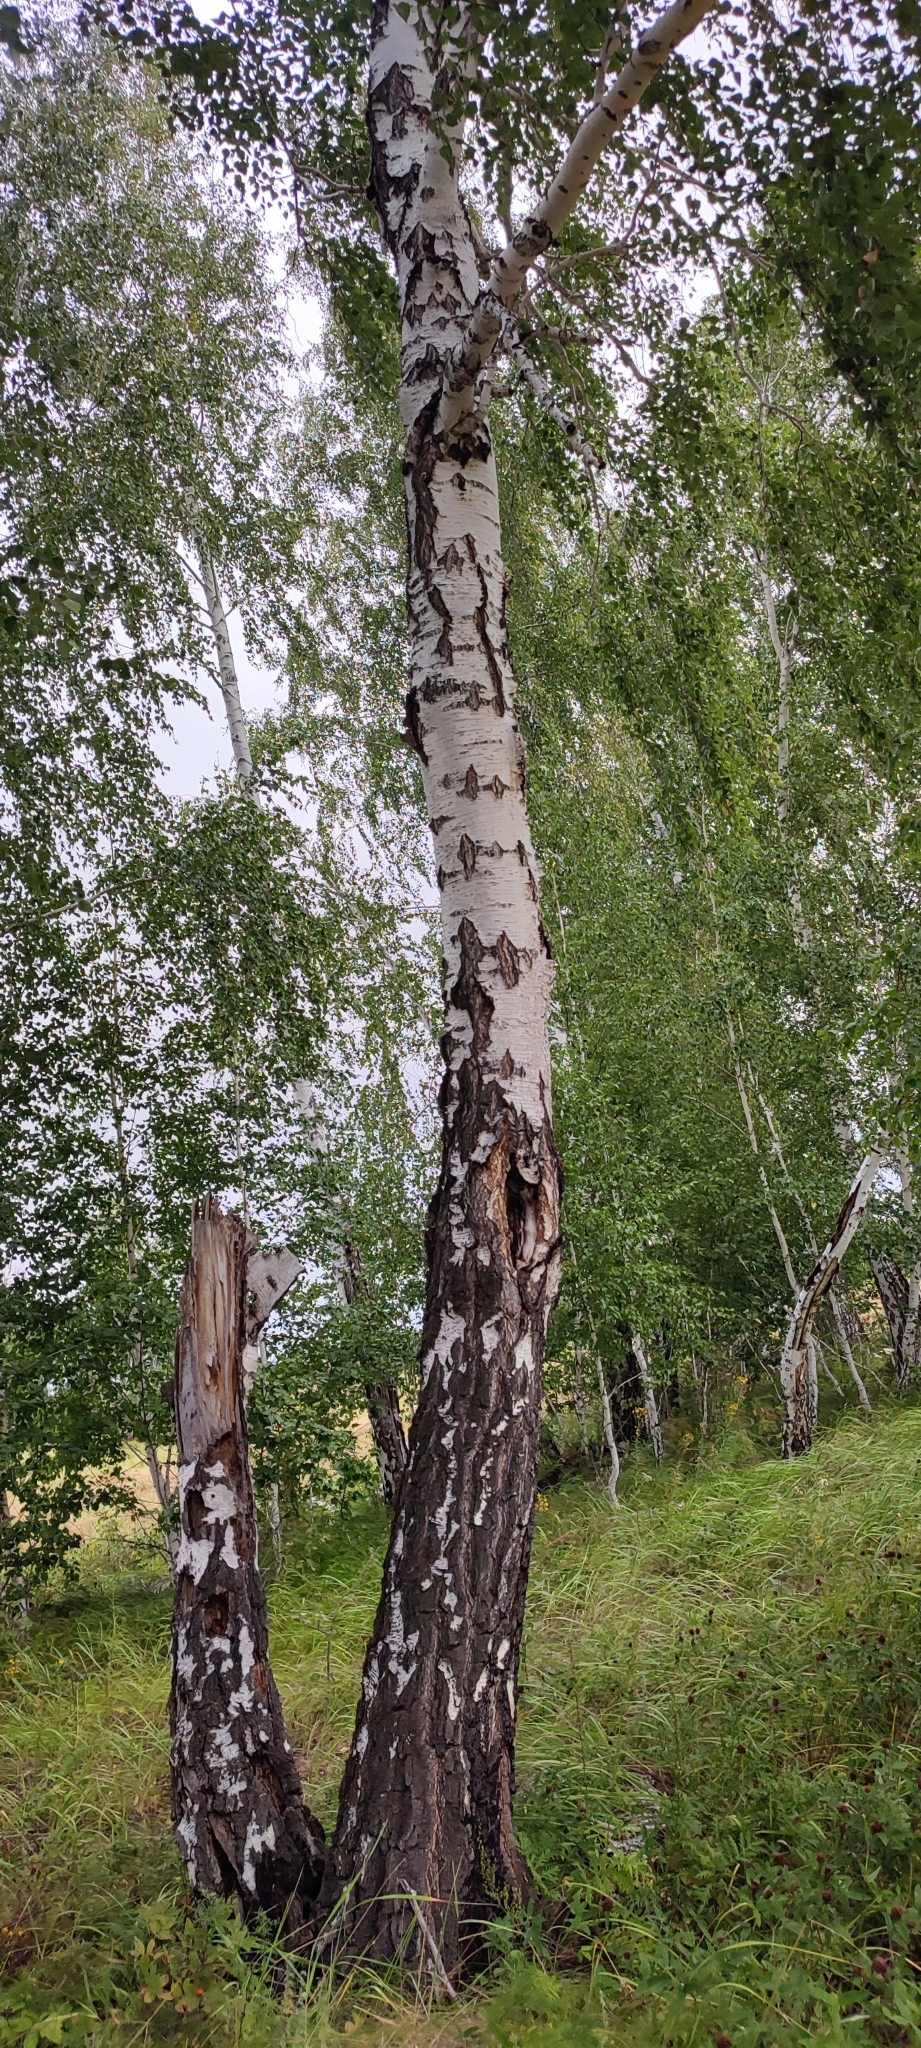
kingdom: Plantae
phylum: Tracheophyta
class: Magnoliopsida
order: Fagales
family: Betulaceae
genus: Betula
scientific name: Betula pendula
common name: Silver birch
